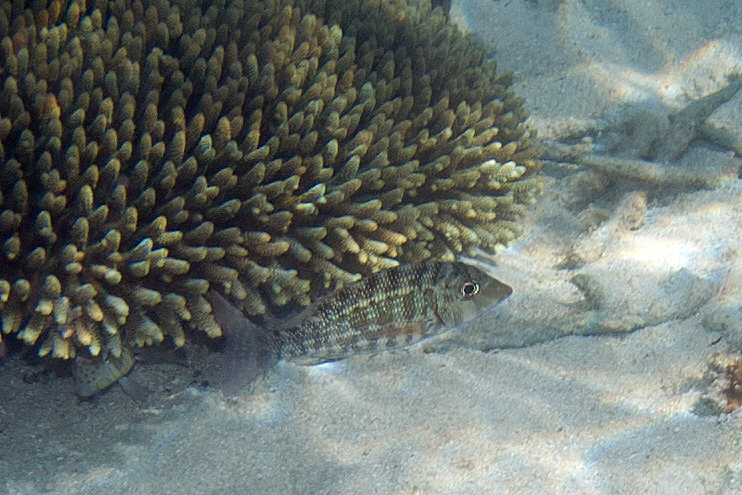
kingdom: Animalia
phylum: Chordata
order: Perciformes
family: Lethrinidae
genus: Lethrinus
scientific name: Lethrinus obsoletus
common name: Orange-striped emperor
